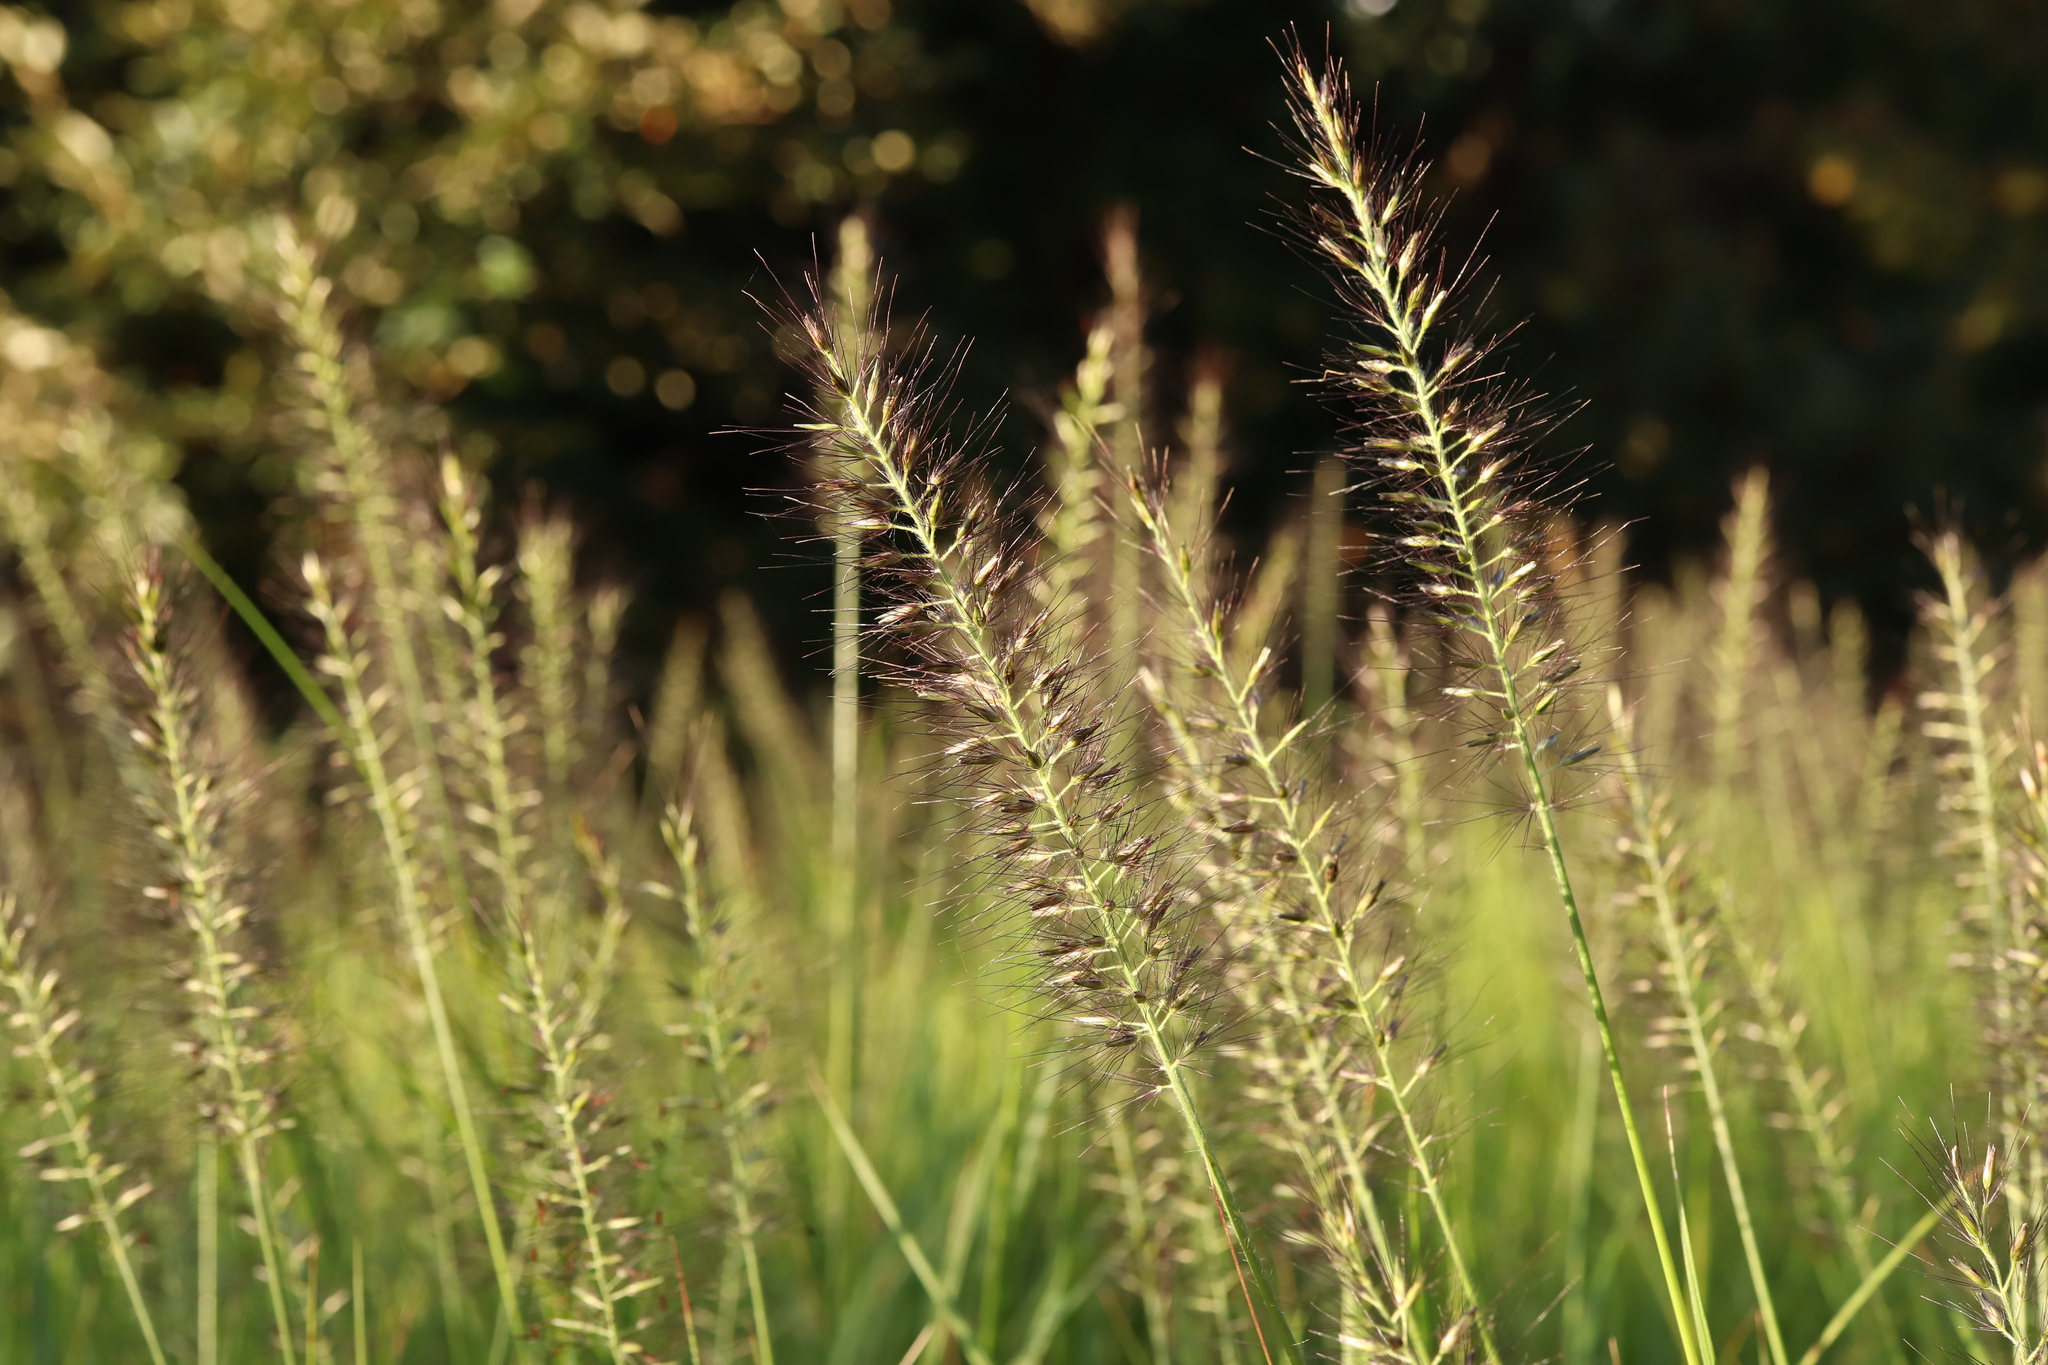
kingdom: Plantae
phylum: Tracheophyta
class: Liliopsida
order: Poales
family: Poaceae
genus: Cenchrus
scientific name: Cenchrus alopecuroides
